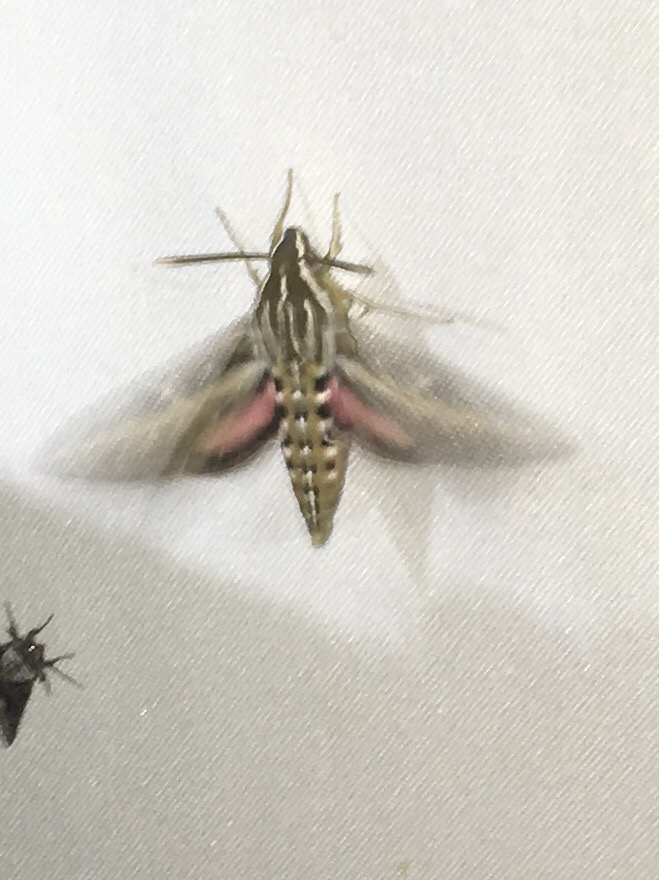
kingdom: Animalia
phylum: Arthropoda
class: Insecta
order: Lepidoptera
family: Sphingidae
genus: Hyles
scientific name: Hyles lineata
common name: White-lined sphinx
